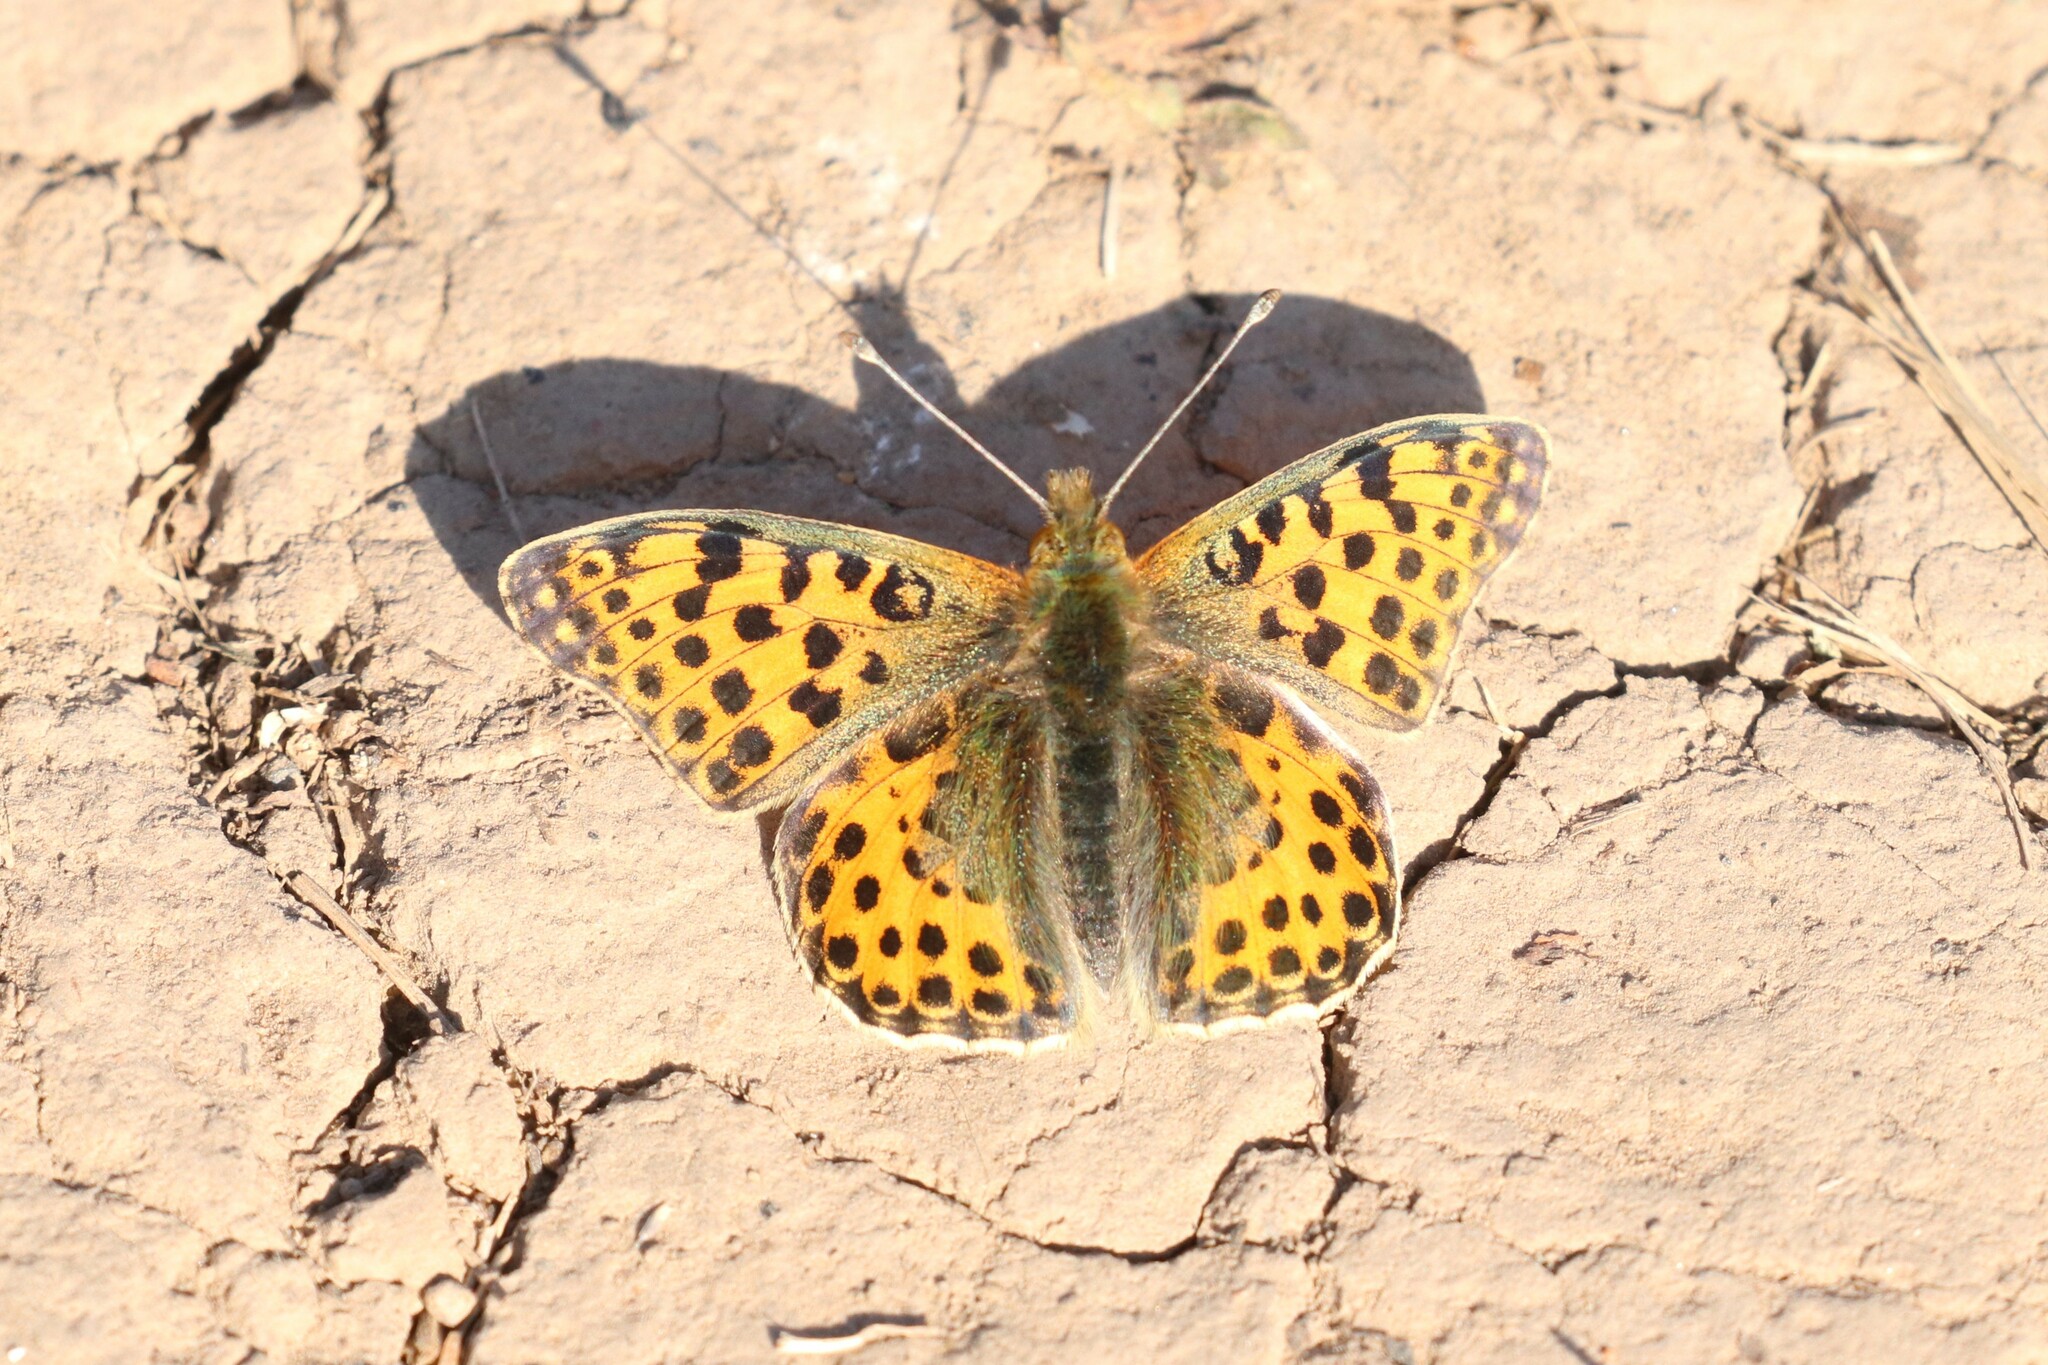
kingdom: Animalia
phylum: Arthropoda
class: Insecta
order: Lepidoptera
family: Nymphalidae
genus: Issoria
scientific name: Issoria lathonia
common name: Queen of spain fritillary
